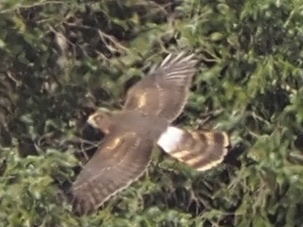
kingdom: Animalia
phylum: Chordata
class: Aves
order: Accipitriformes
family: Accipitridae
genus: Circus
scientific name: Circus cyaneus
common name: Hen harrier
